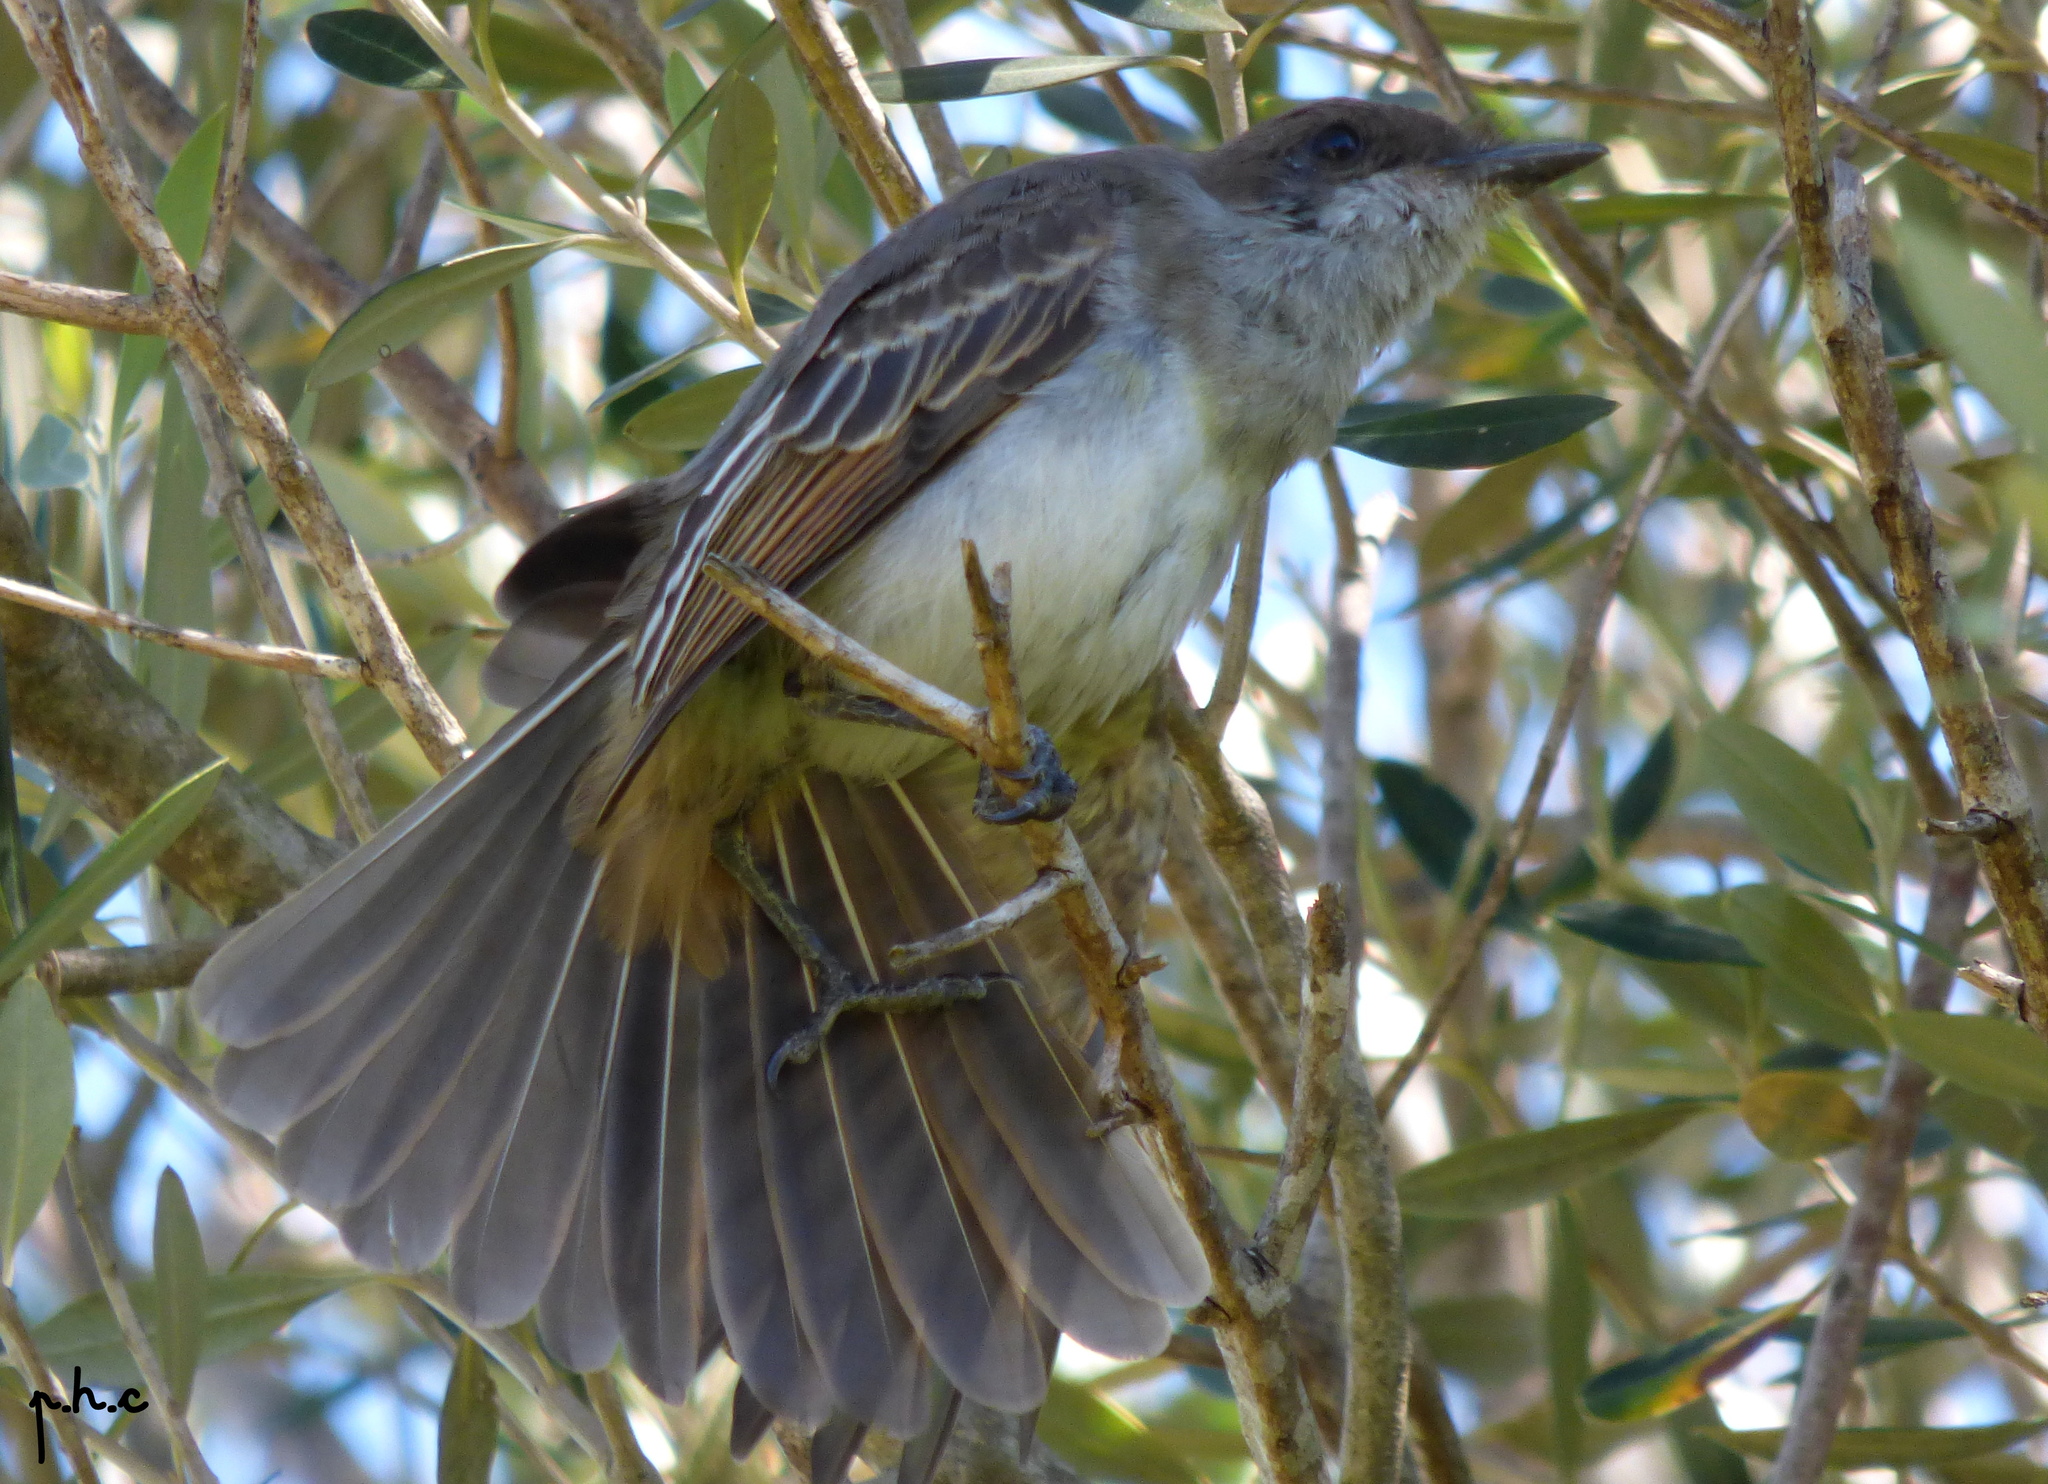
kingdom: Animalia
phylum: Chordata
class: Aves
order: Passeriformes
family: Tyrannidae
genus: Myiarchus
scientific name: Myiarchus swainsoni
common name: Swainson's flycatcher
